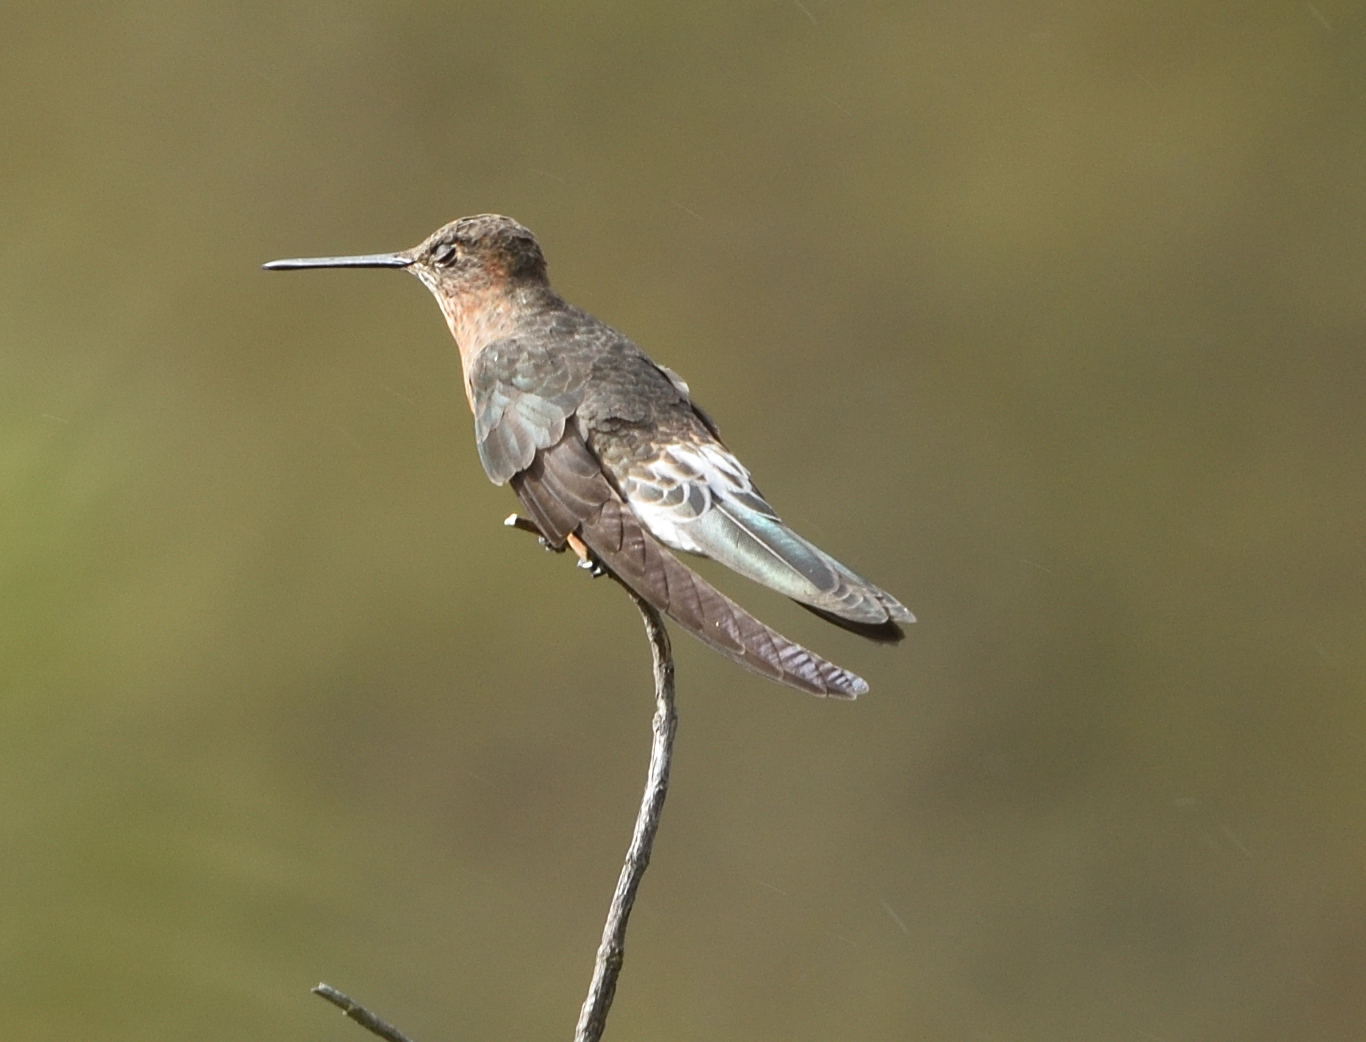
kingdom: Animalia
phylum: Chordata
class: Aves
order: Apodiformes
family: Trochilidae
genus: Patagona
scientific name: Patagona gigas
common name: Giant hummingbird
